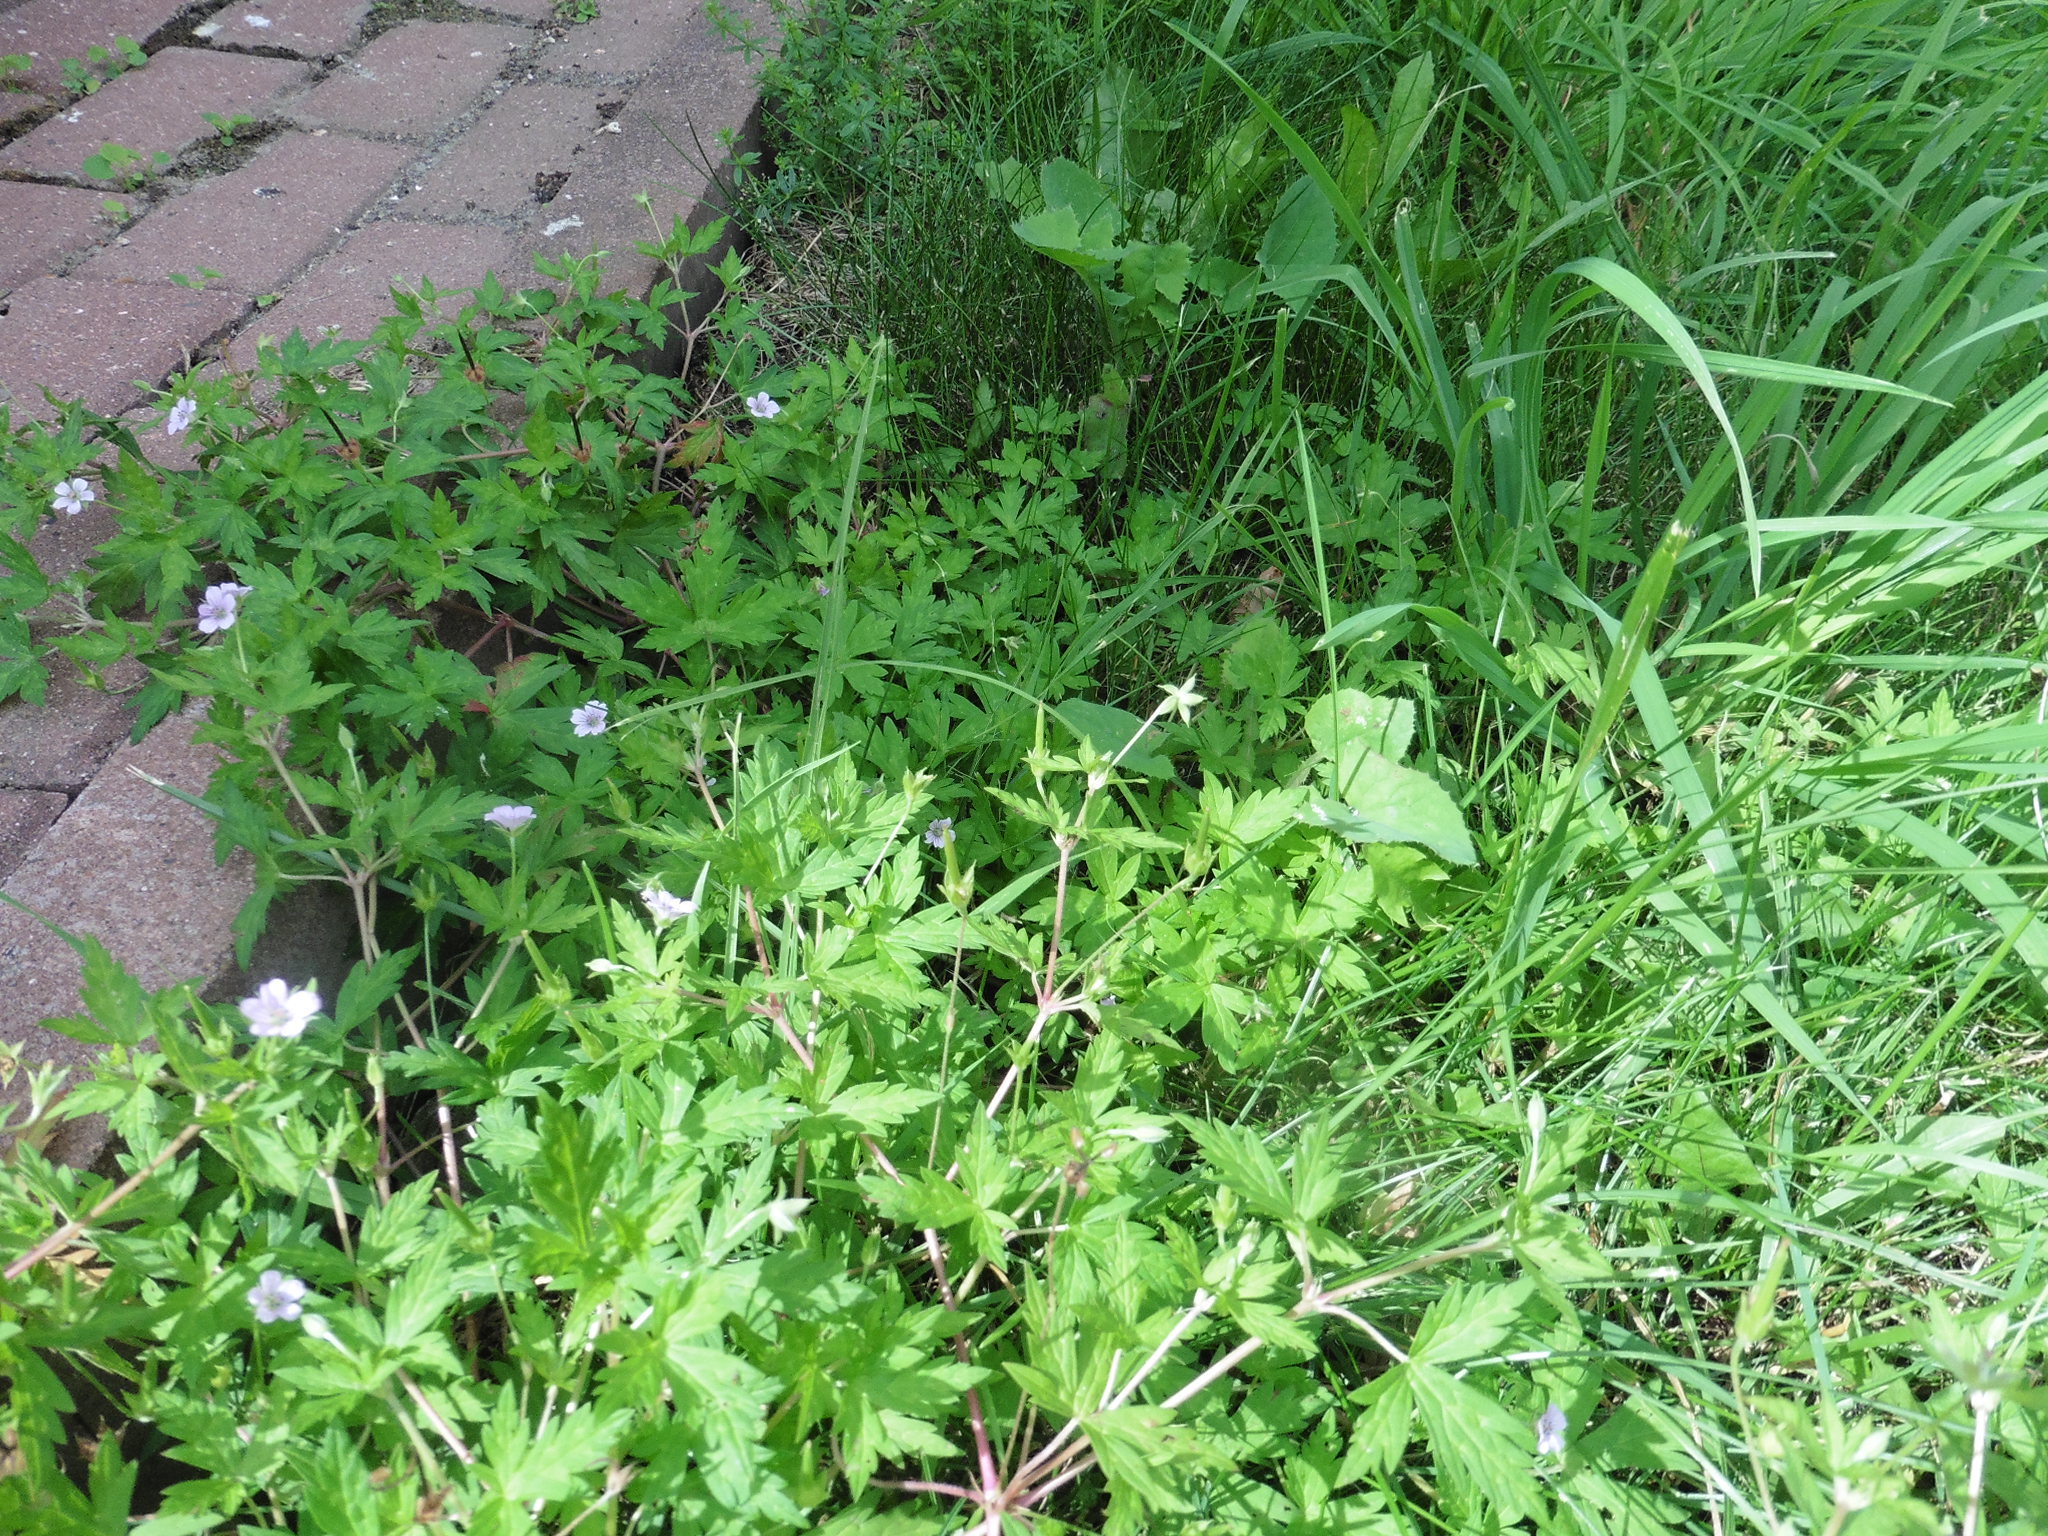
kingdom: Plantae
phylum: Tracheophyta
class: Magnoliopsida
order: Geraniales
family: Geraniaceae
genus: Geranium
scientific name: Geranium sibiricum
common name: Siberian crane's-bill
